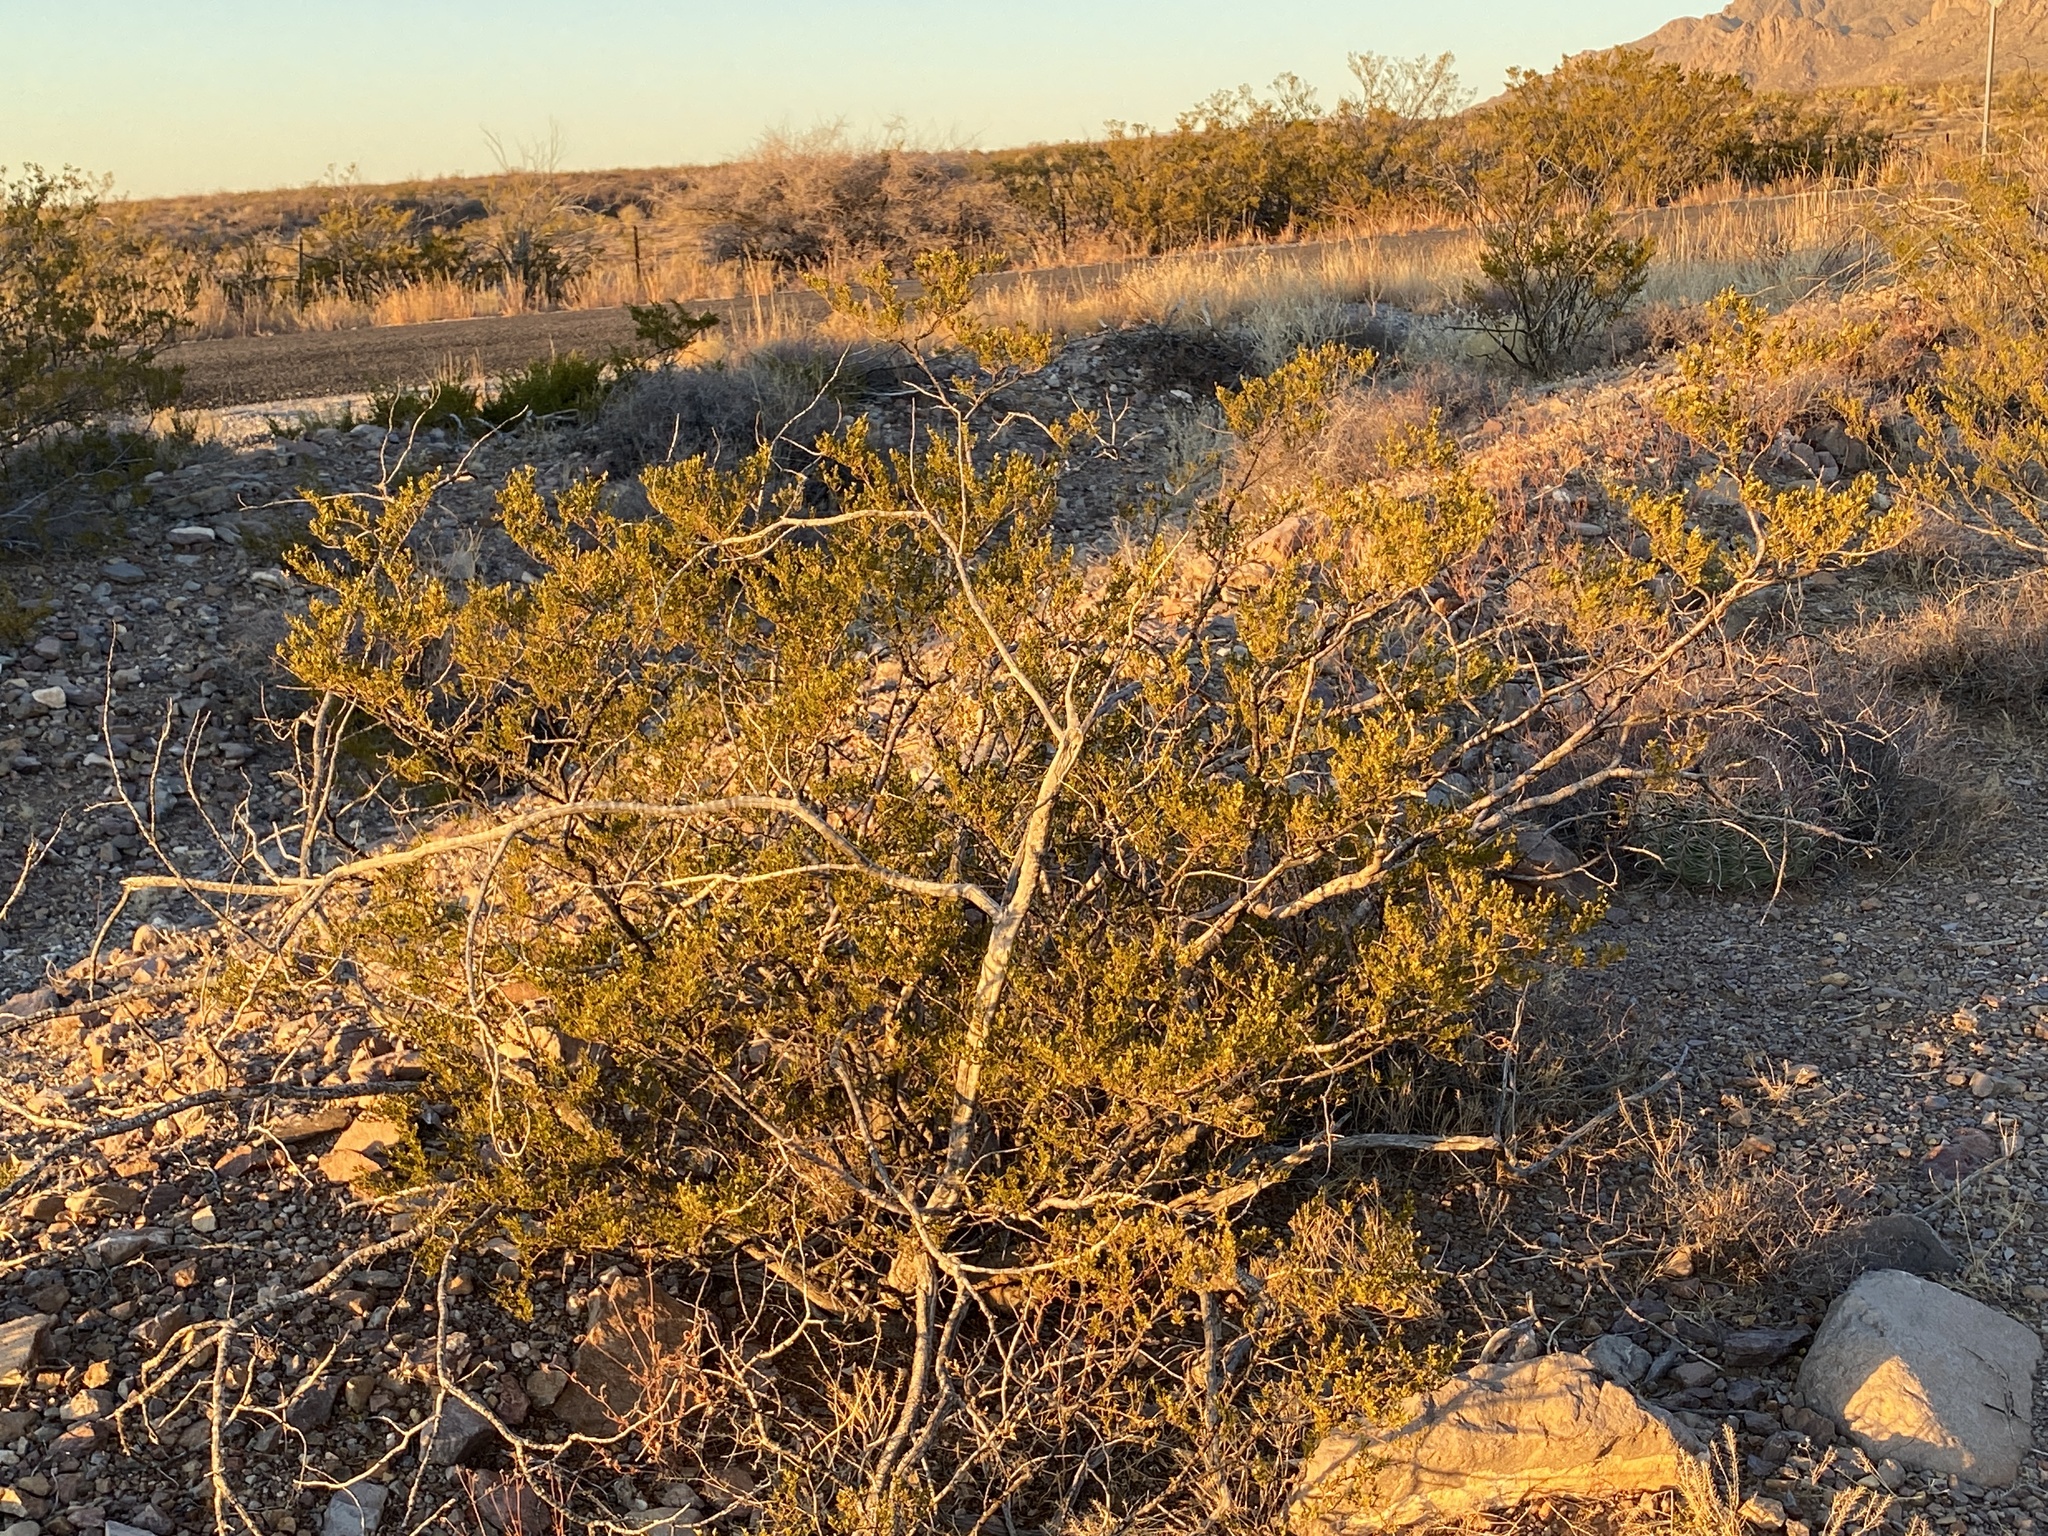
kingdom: Plantae
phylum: Tracheophyta
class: Magnoliopsida
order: Zygophyllales
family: Zygophyllaceae
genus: Larrea
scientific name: Larrea tridentata
